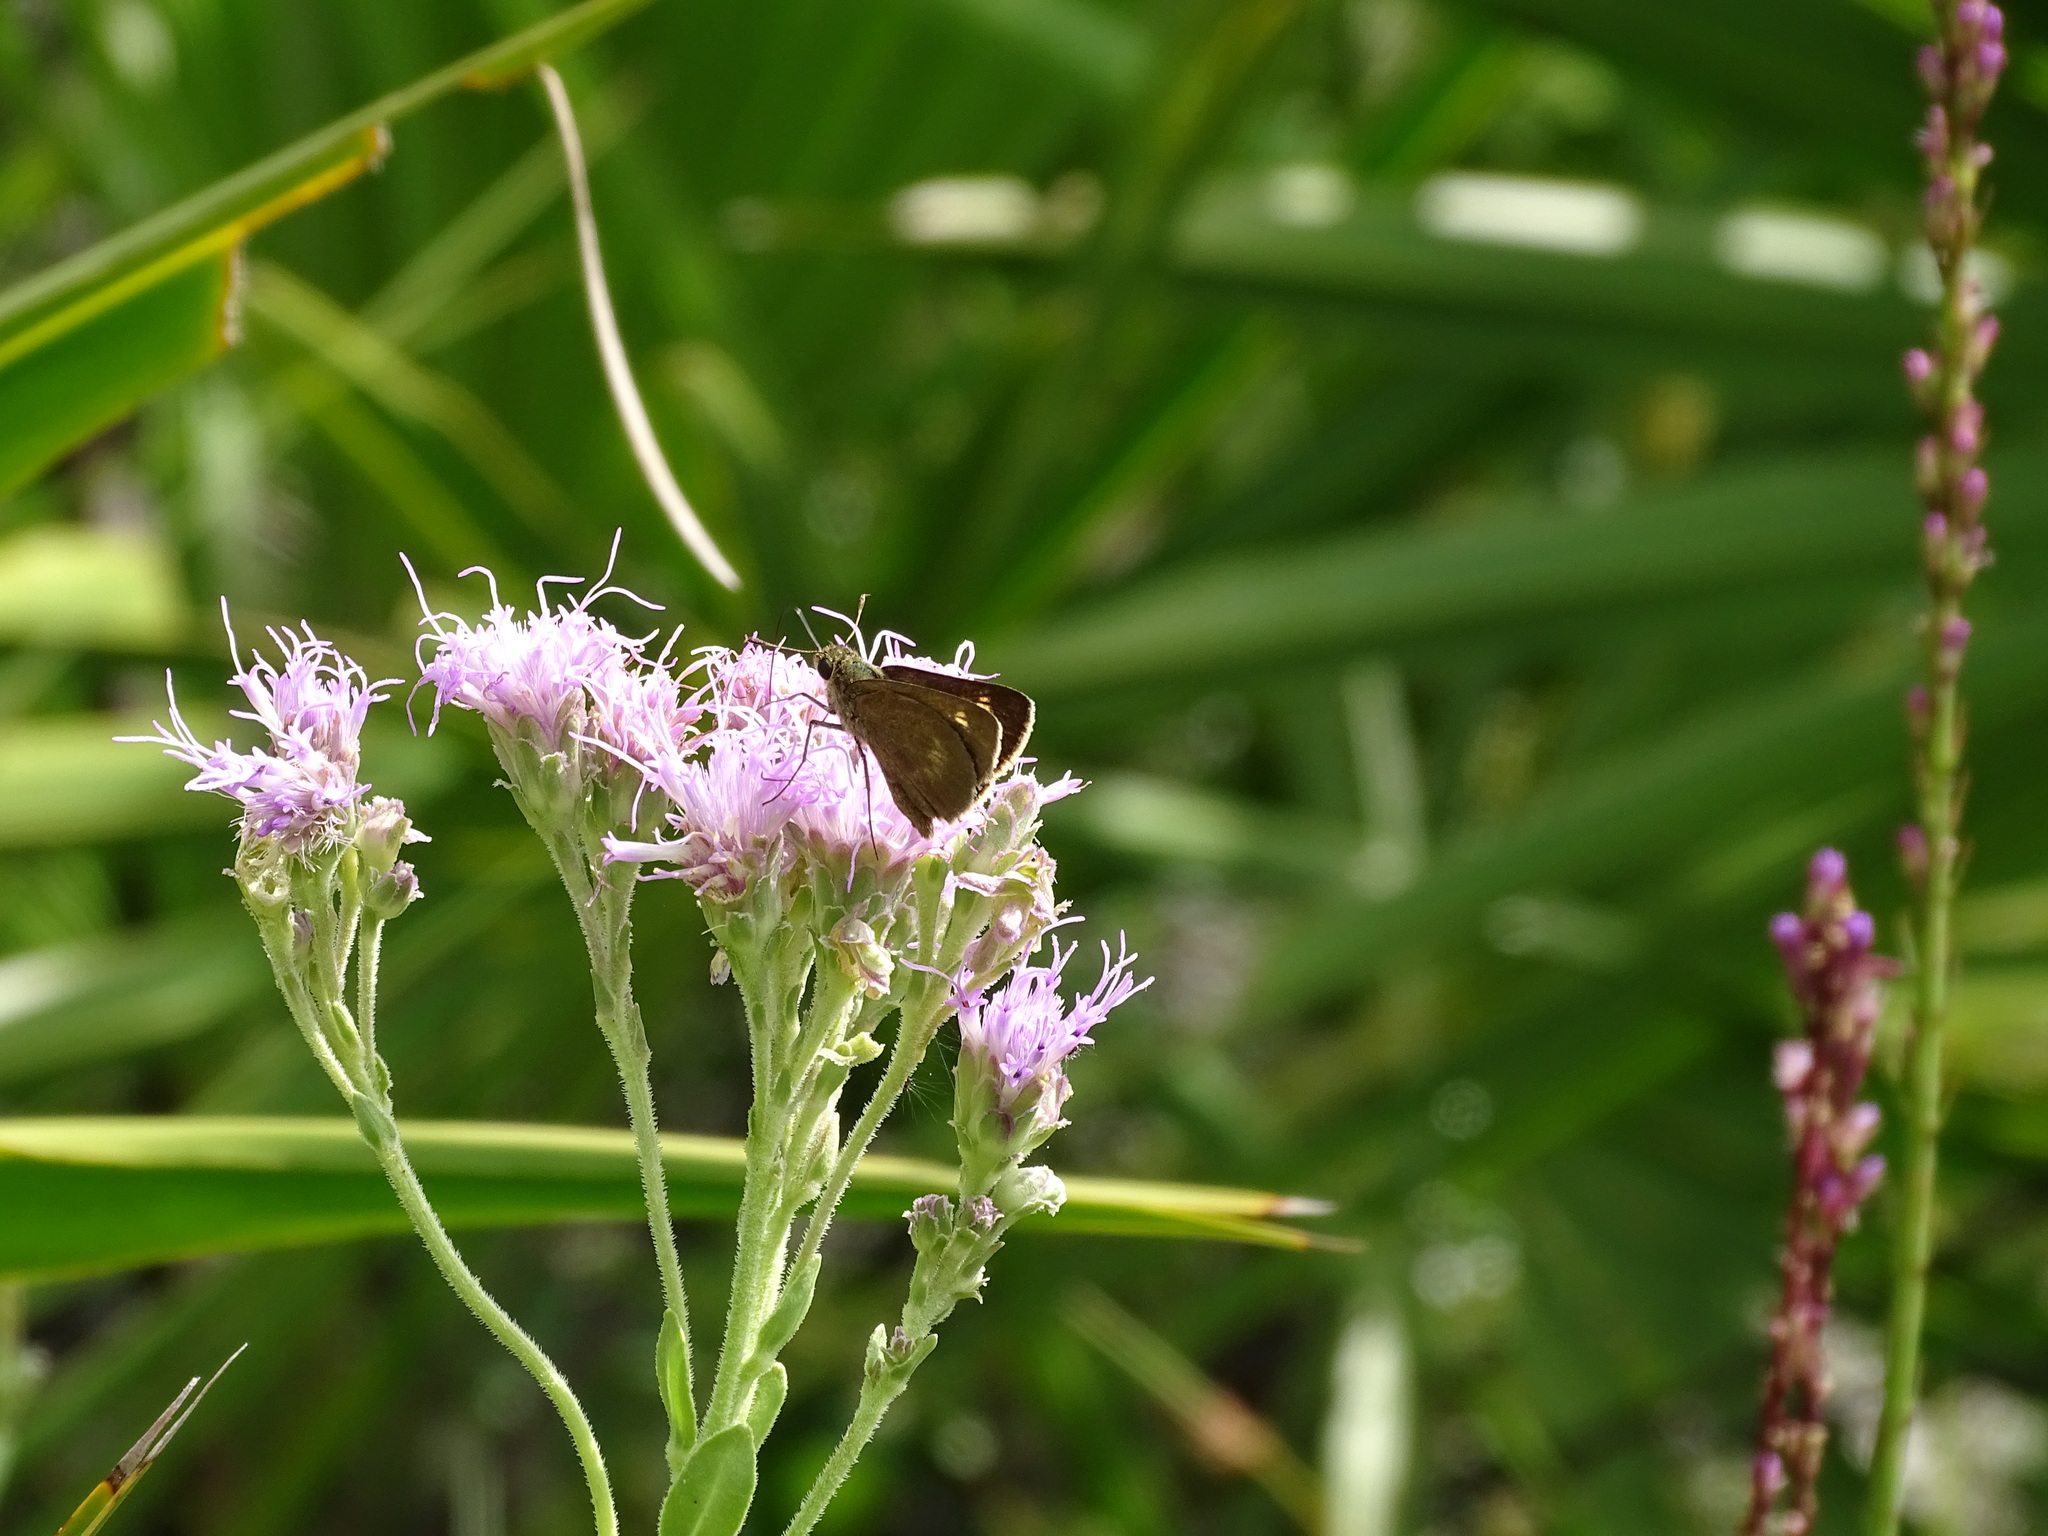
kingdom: Animalia
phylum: Arthropoda
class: Insecta
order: Lepidoptera
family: Hesperiidae
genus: Polites
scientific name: Polites egeremet
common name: Northern broken-dash
